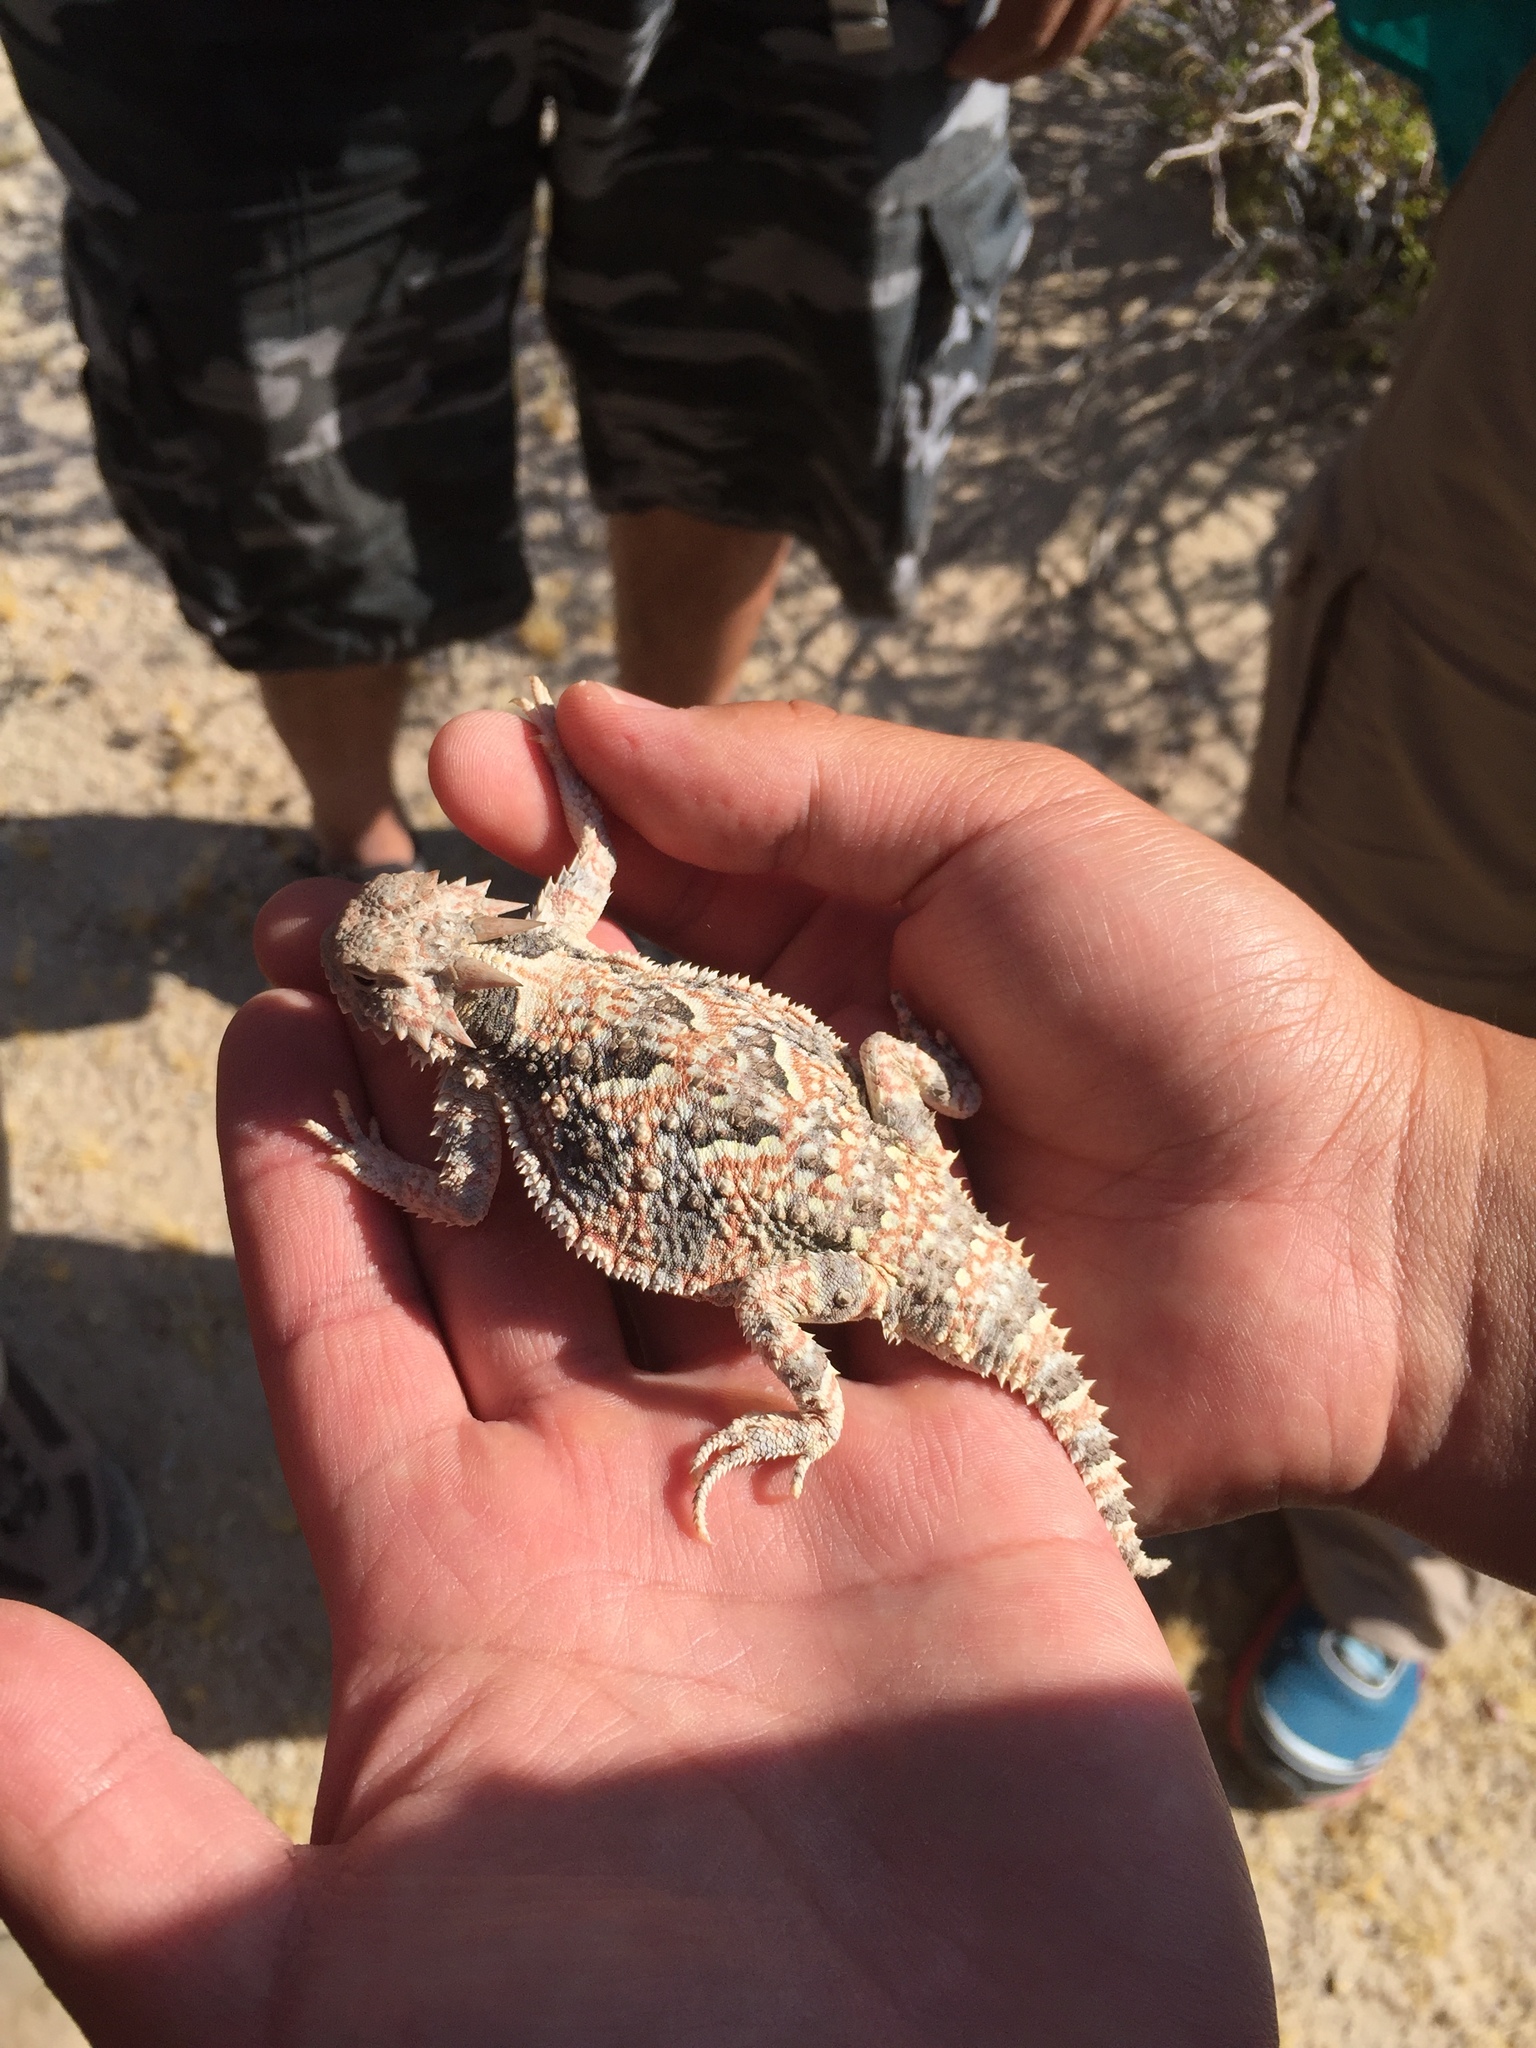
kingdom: Animalia
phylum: Chordata
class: Squamata
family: Phrynosomatidae
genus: Phrynosoma
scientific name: Phrynosoma platyrhinos
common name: Desert horned lizard
